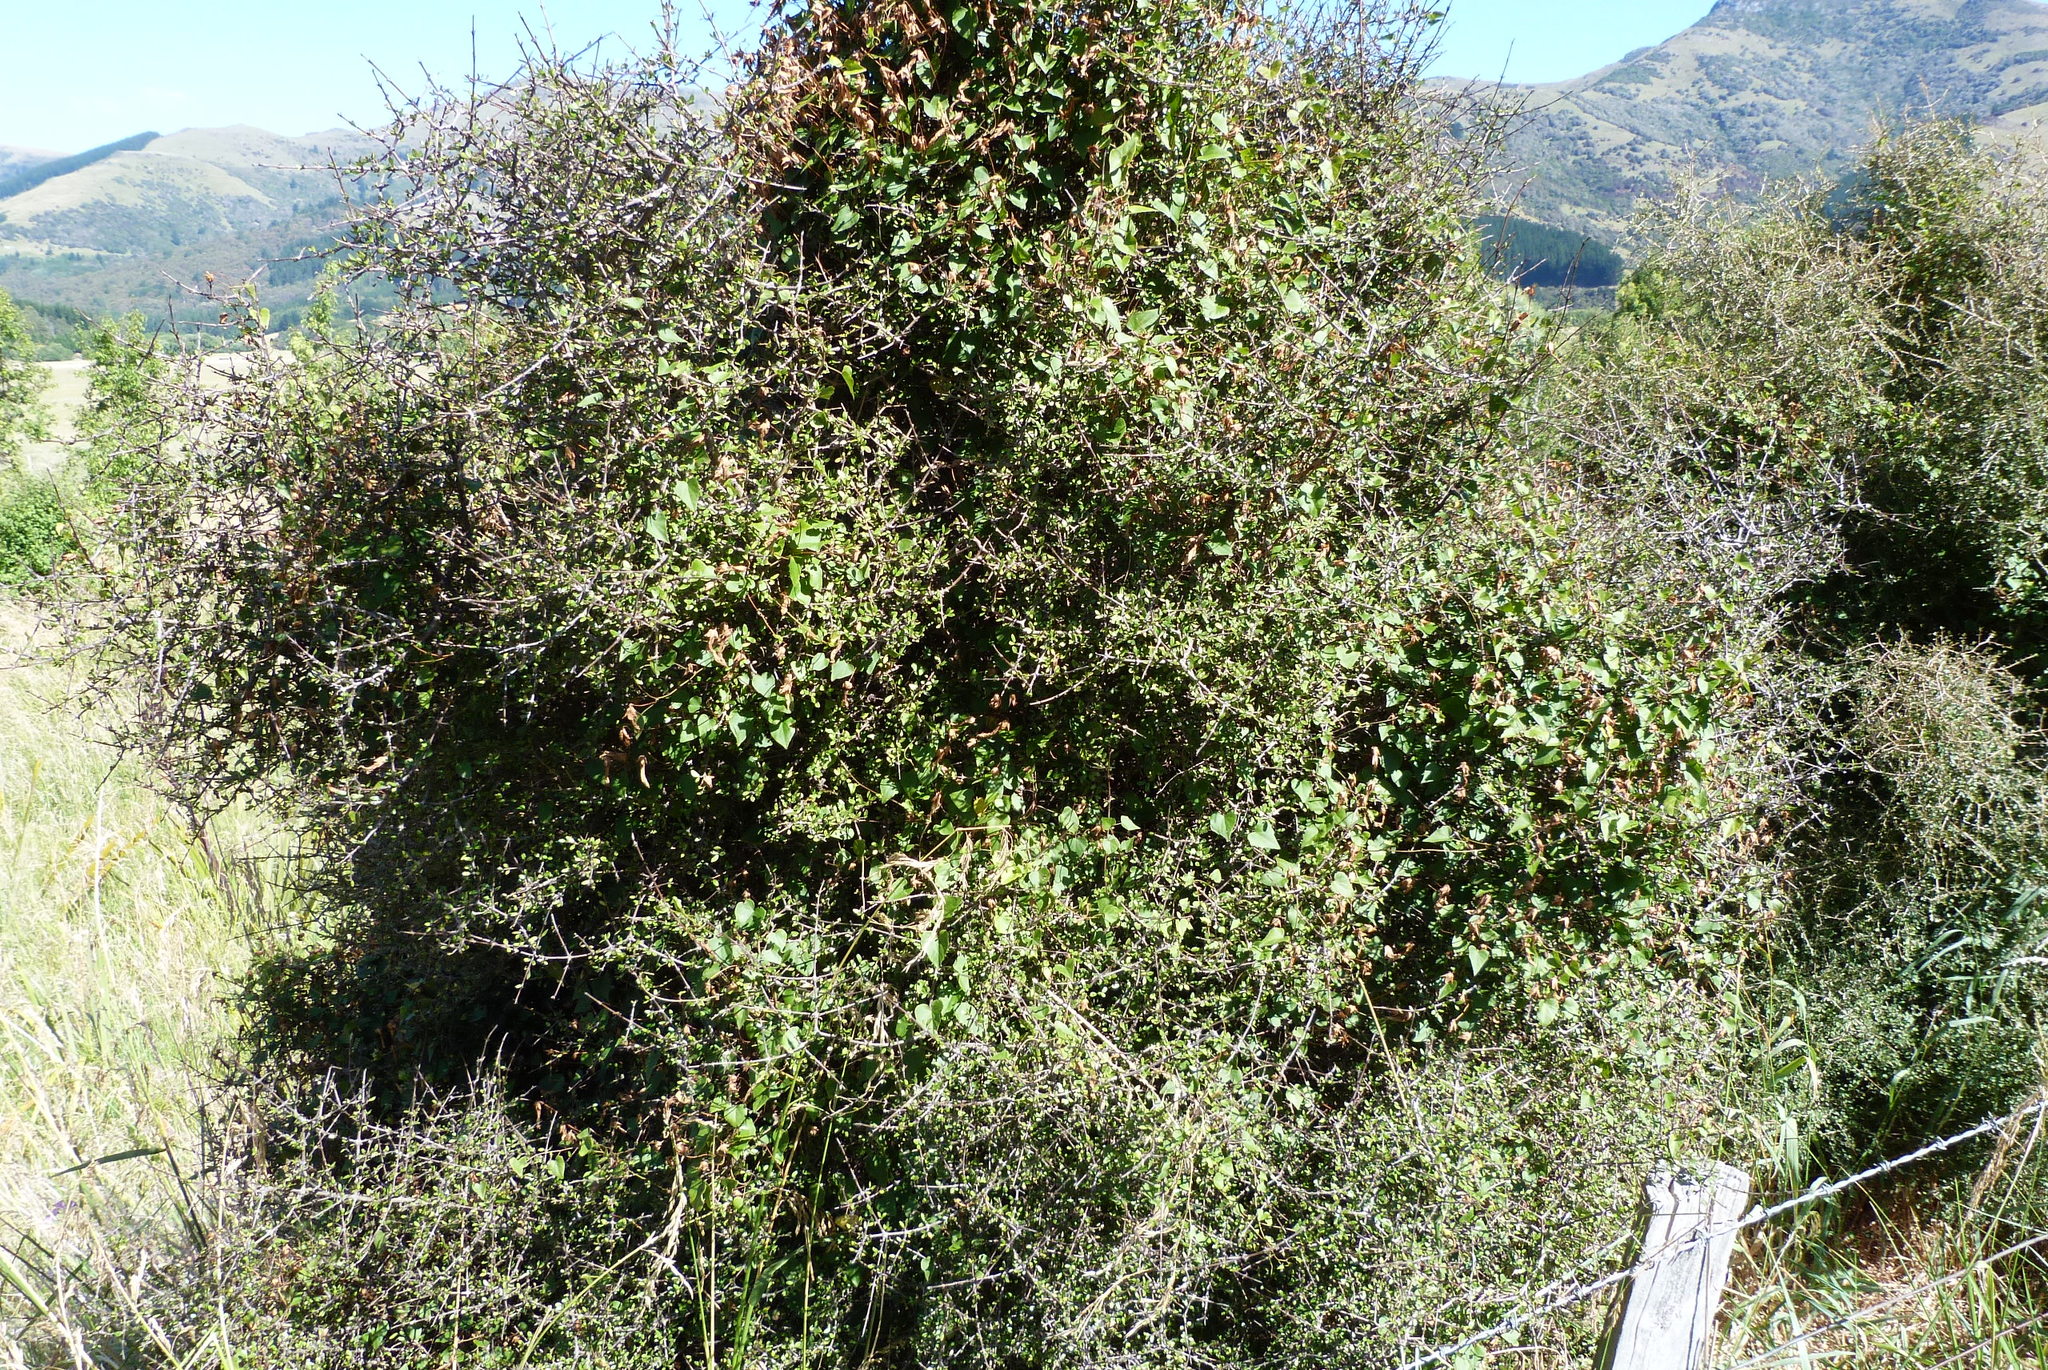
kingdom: Plantae
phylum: Tracheophyta
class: Magnoliopsida
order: Solanales
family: Convolvulaceae
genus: Calystegia
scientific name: Calystegia tuguriorum
